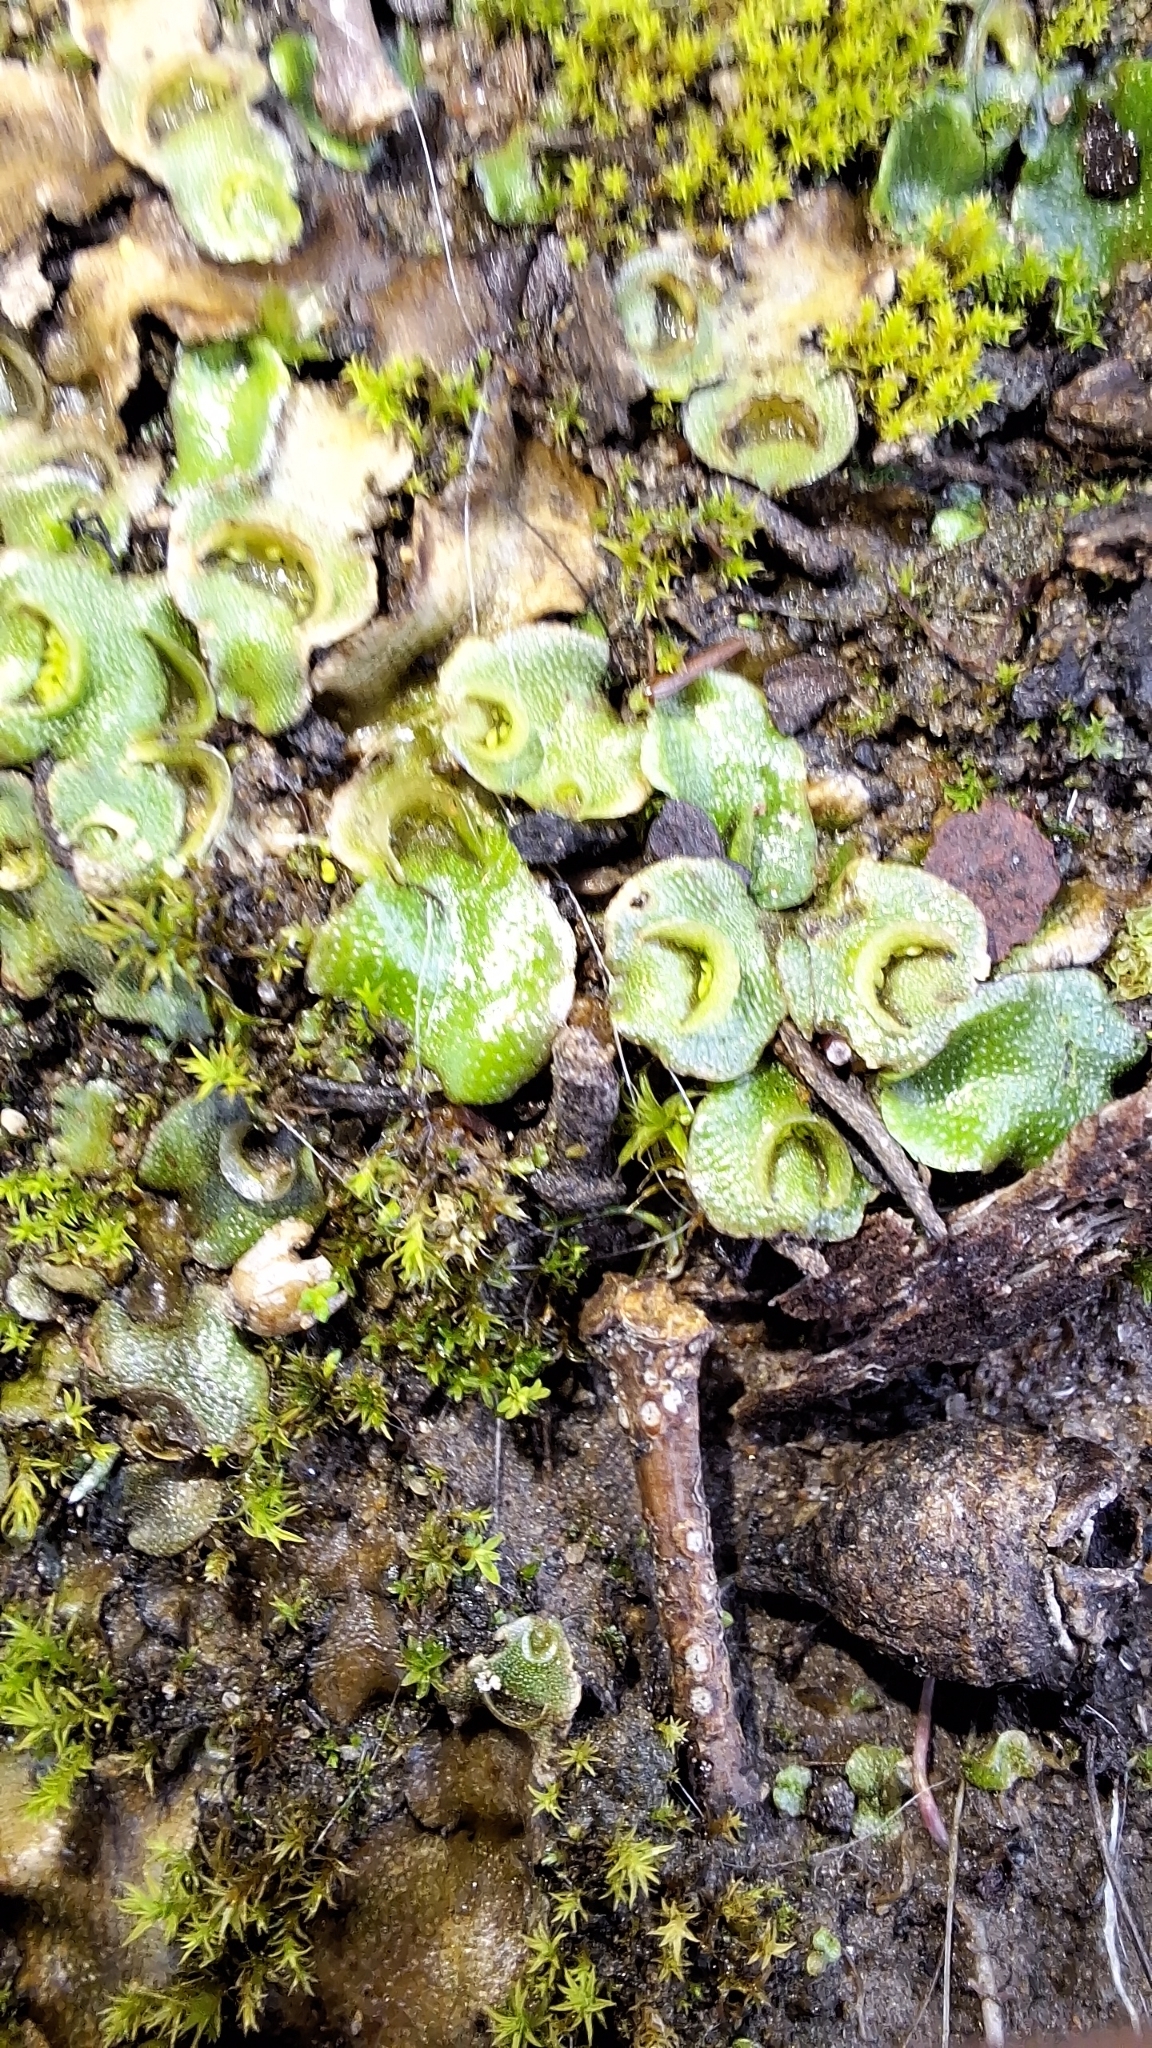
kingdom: Plantae
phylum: Marchantiophyta
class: Marchantiopsida
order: Lunulariales
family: Lunulariaceae
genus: Lunularia
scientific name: Lunularia cruciata
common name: Crescent-cup liverwort
